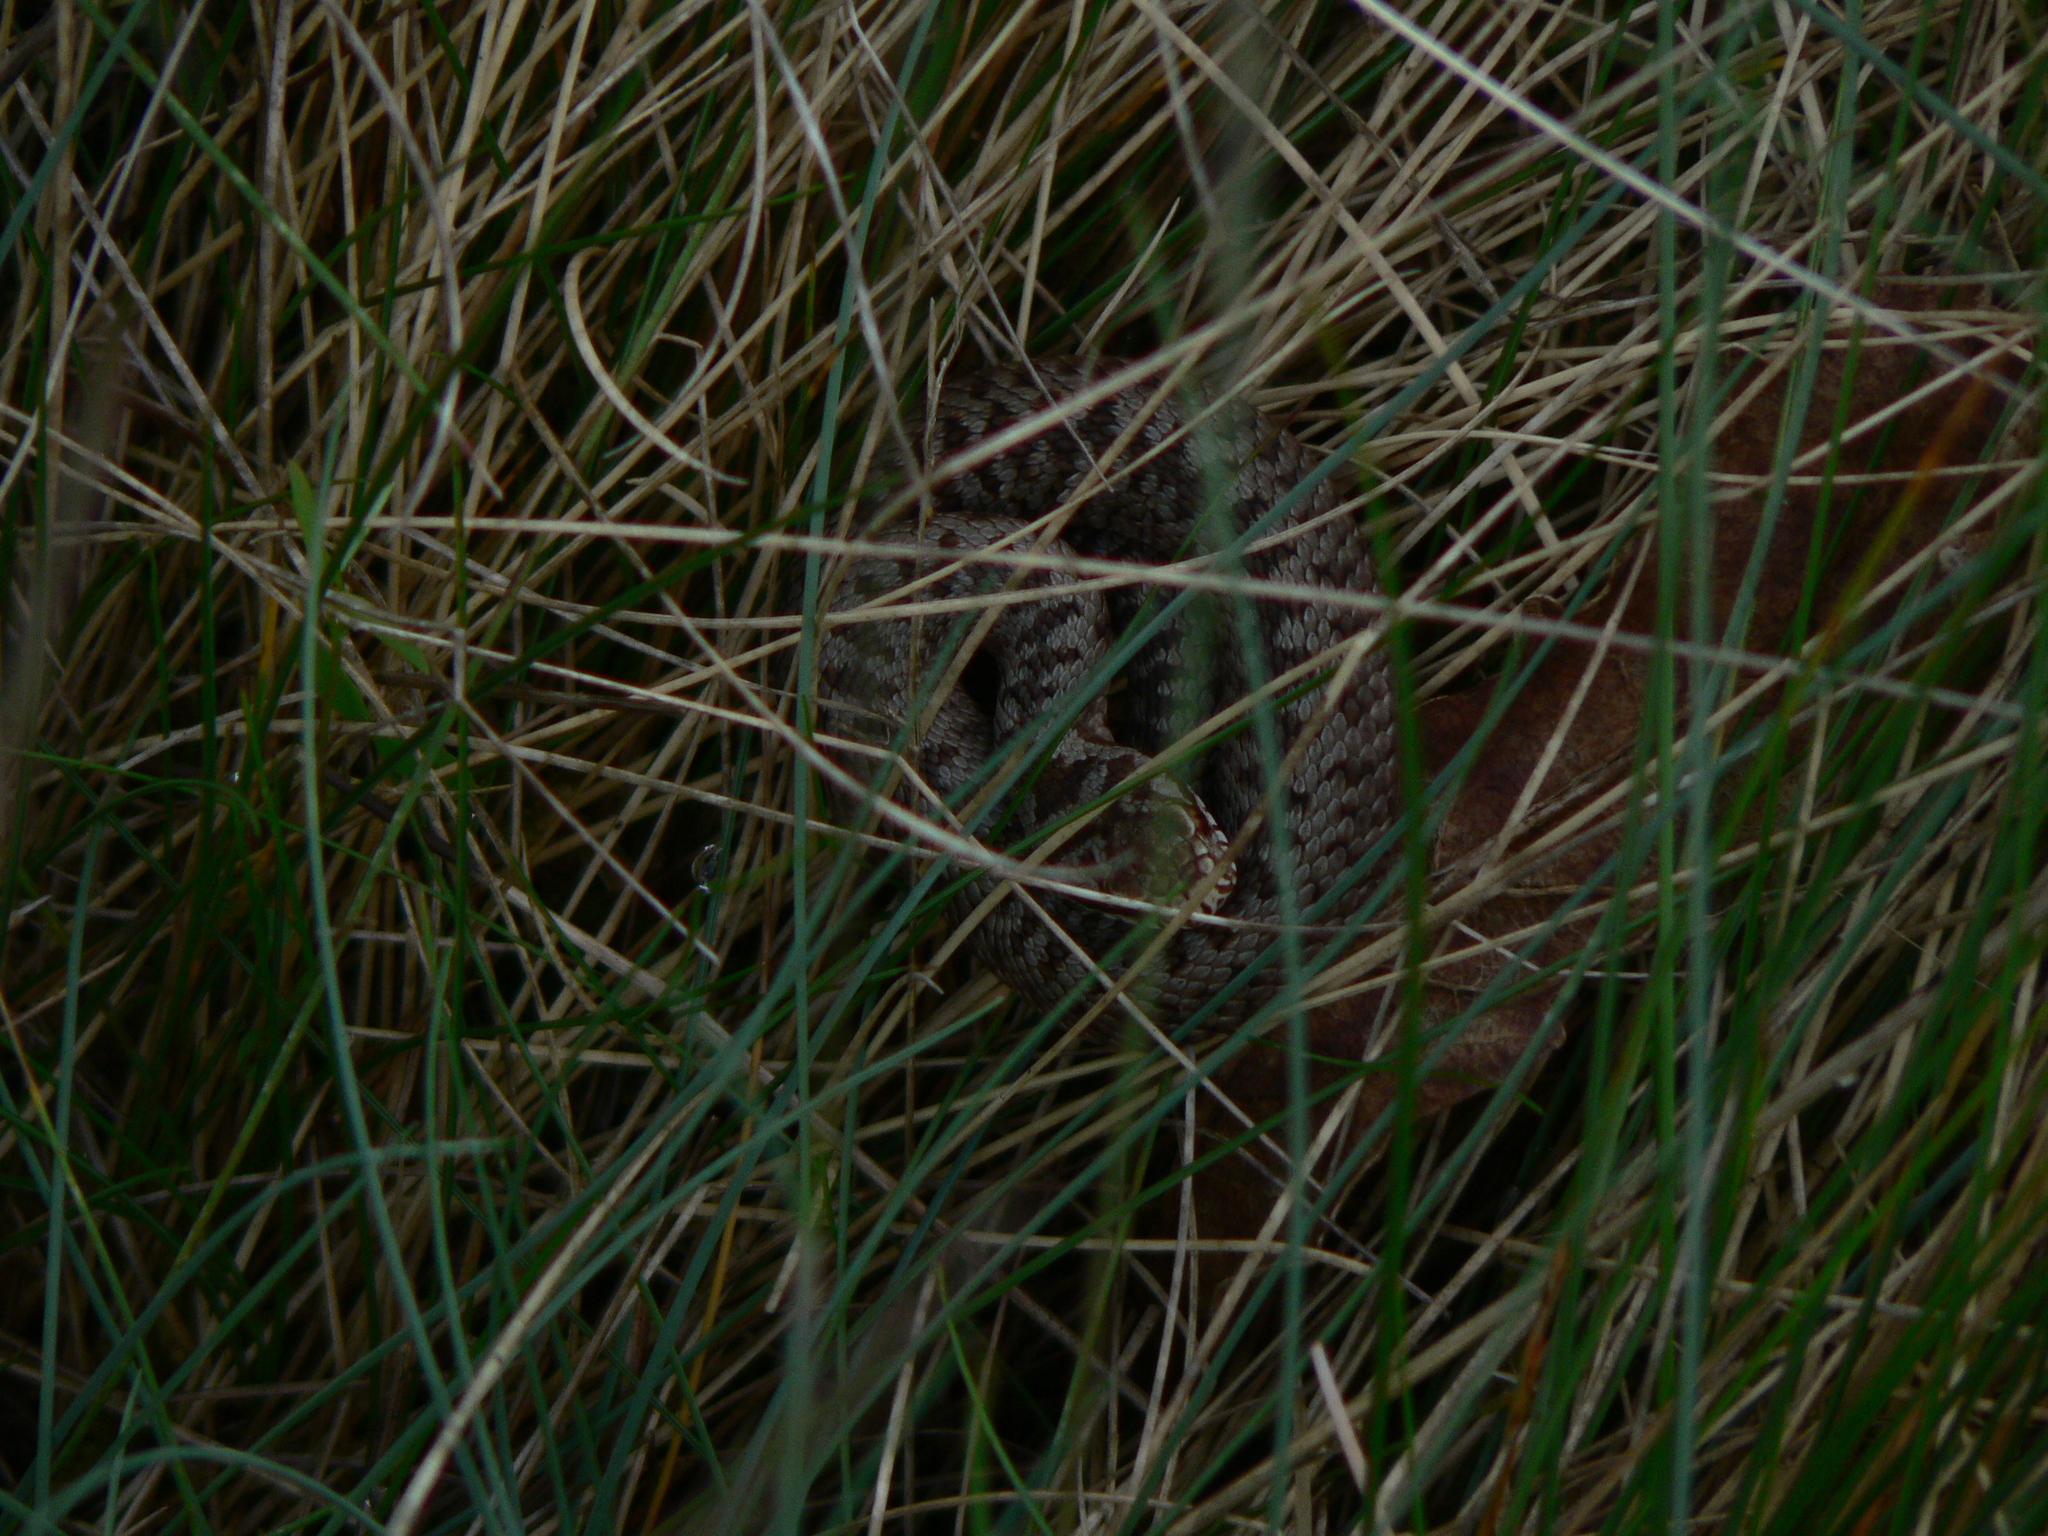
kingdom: Animalia
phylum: Chordata
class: Squamata
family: Viperidae
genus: Vipera
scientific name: Vipera berus
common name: Adder
